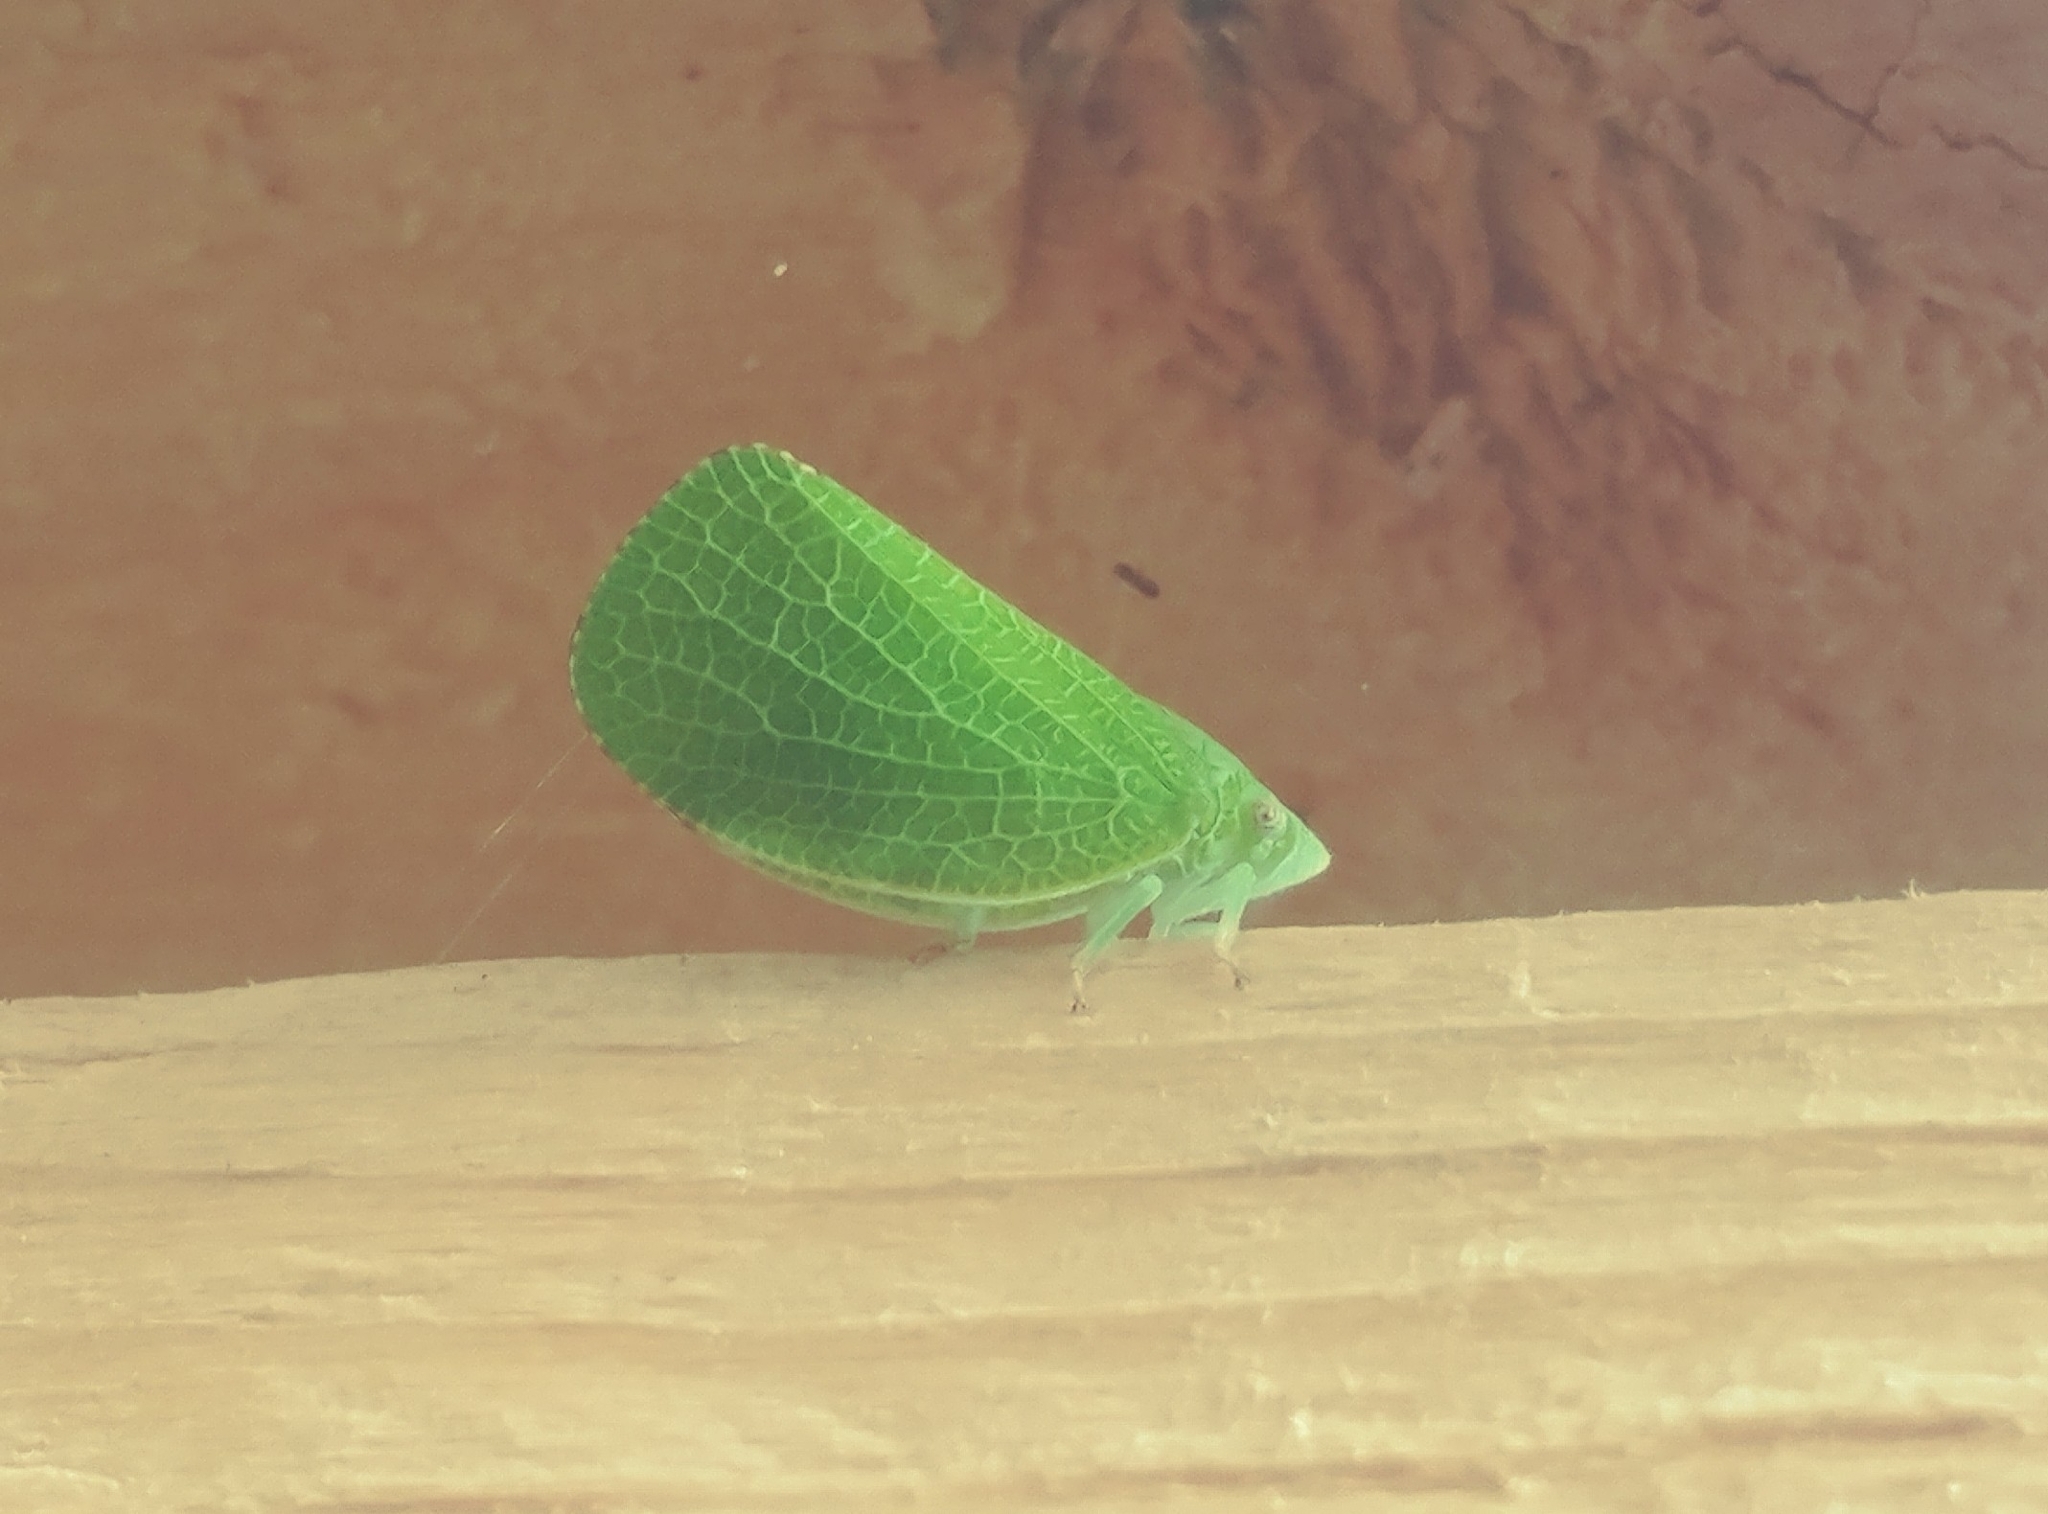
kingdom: Animalia
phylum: Arthropoda
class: Insecta
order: Hemiptera
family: Acanaloniidae
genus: Acanalonia
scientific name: Acanalonia conica
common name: Green cone-headed planthopper
